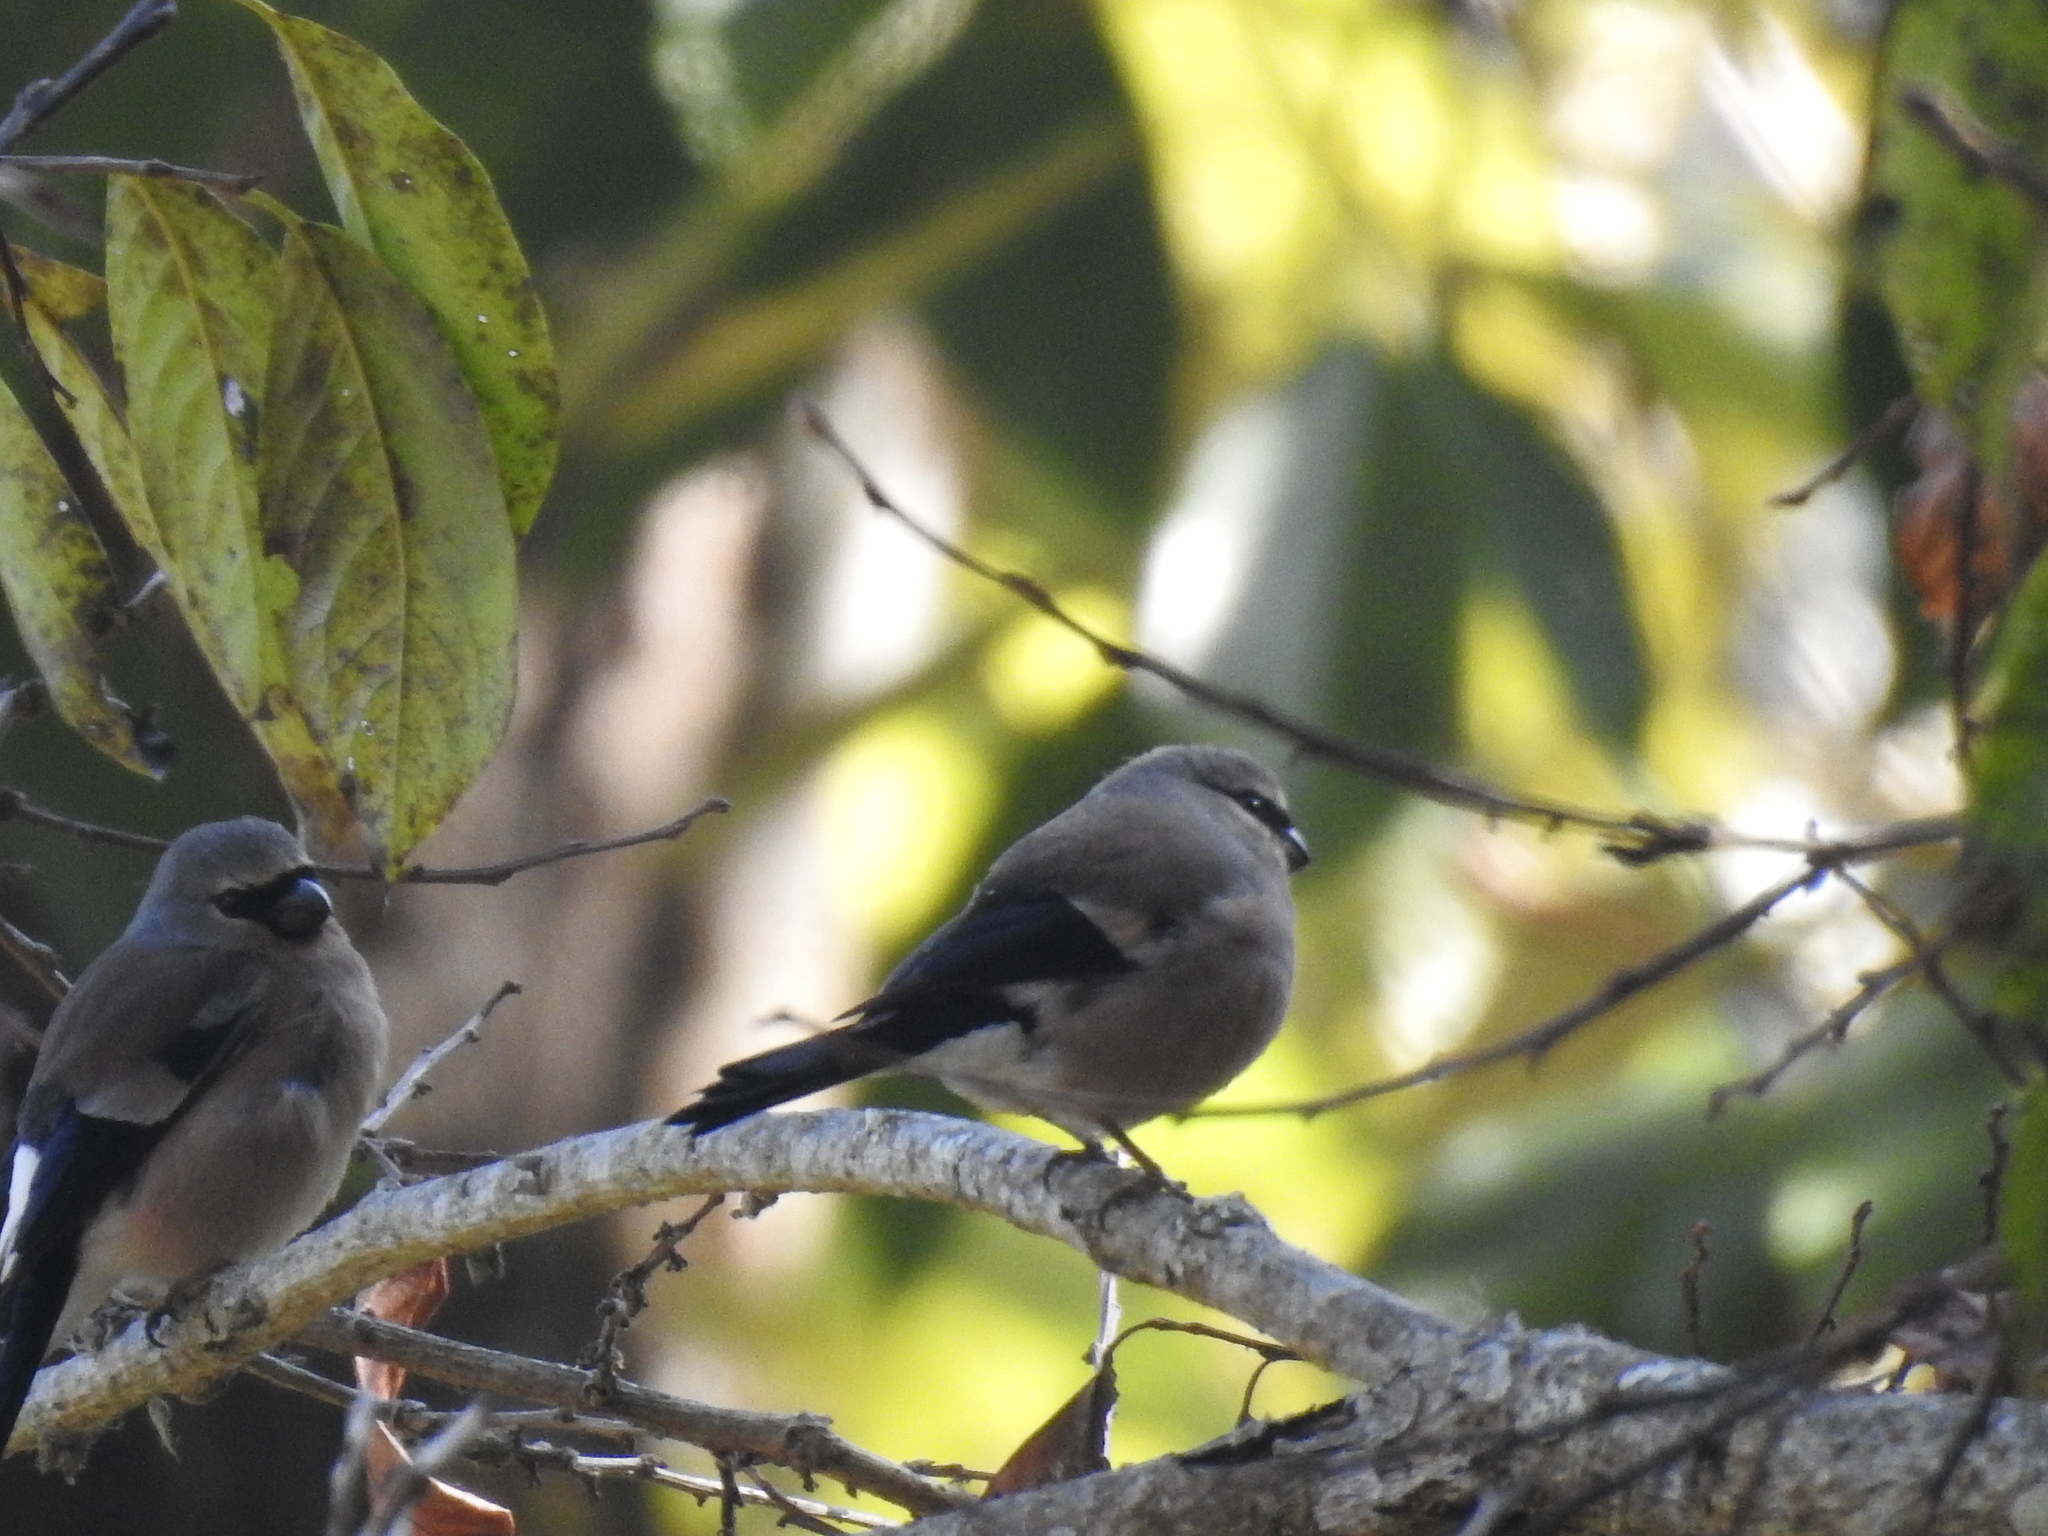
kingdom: Animalia
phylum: Chordata
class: Aves
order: Passeriformes
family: Fringillidae
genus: Pyrrhula
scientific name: Pyrrhula erythaca
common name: Grey-headed bullfinch
